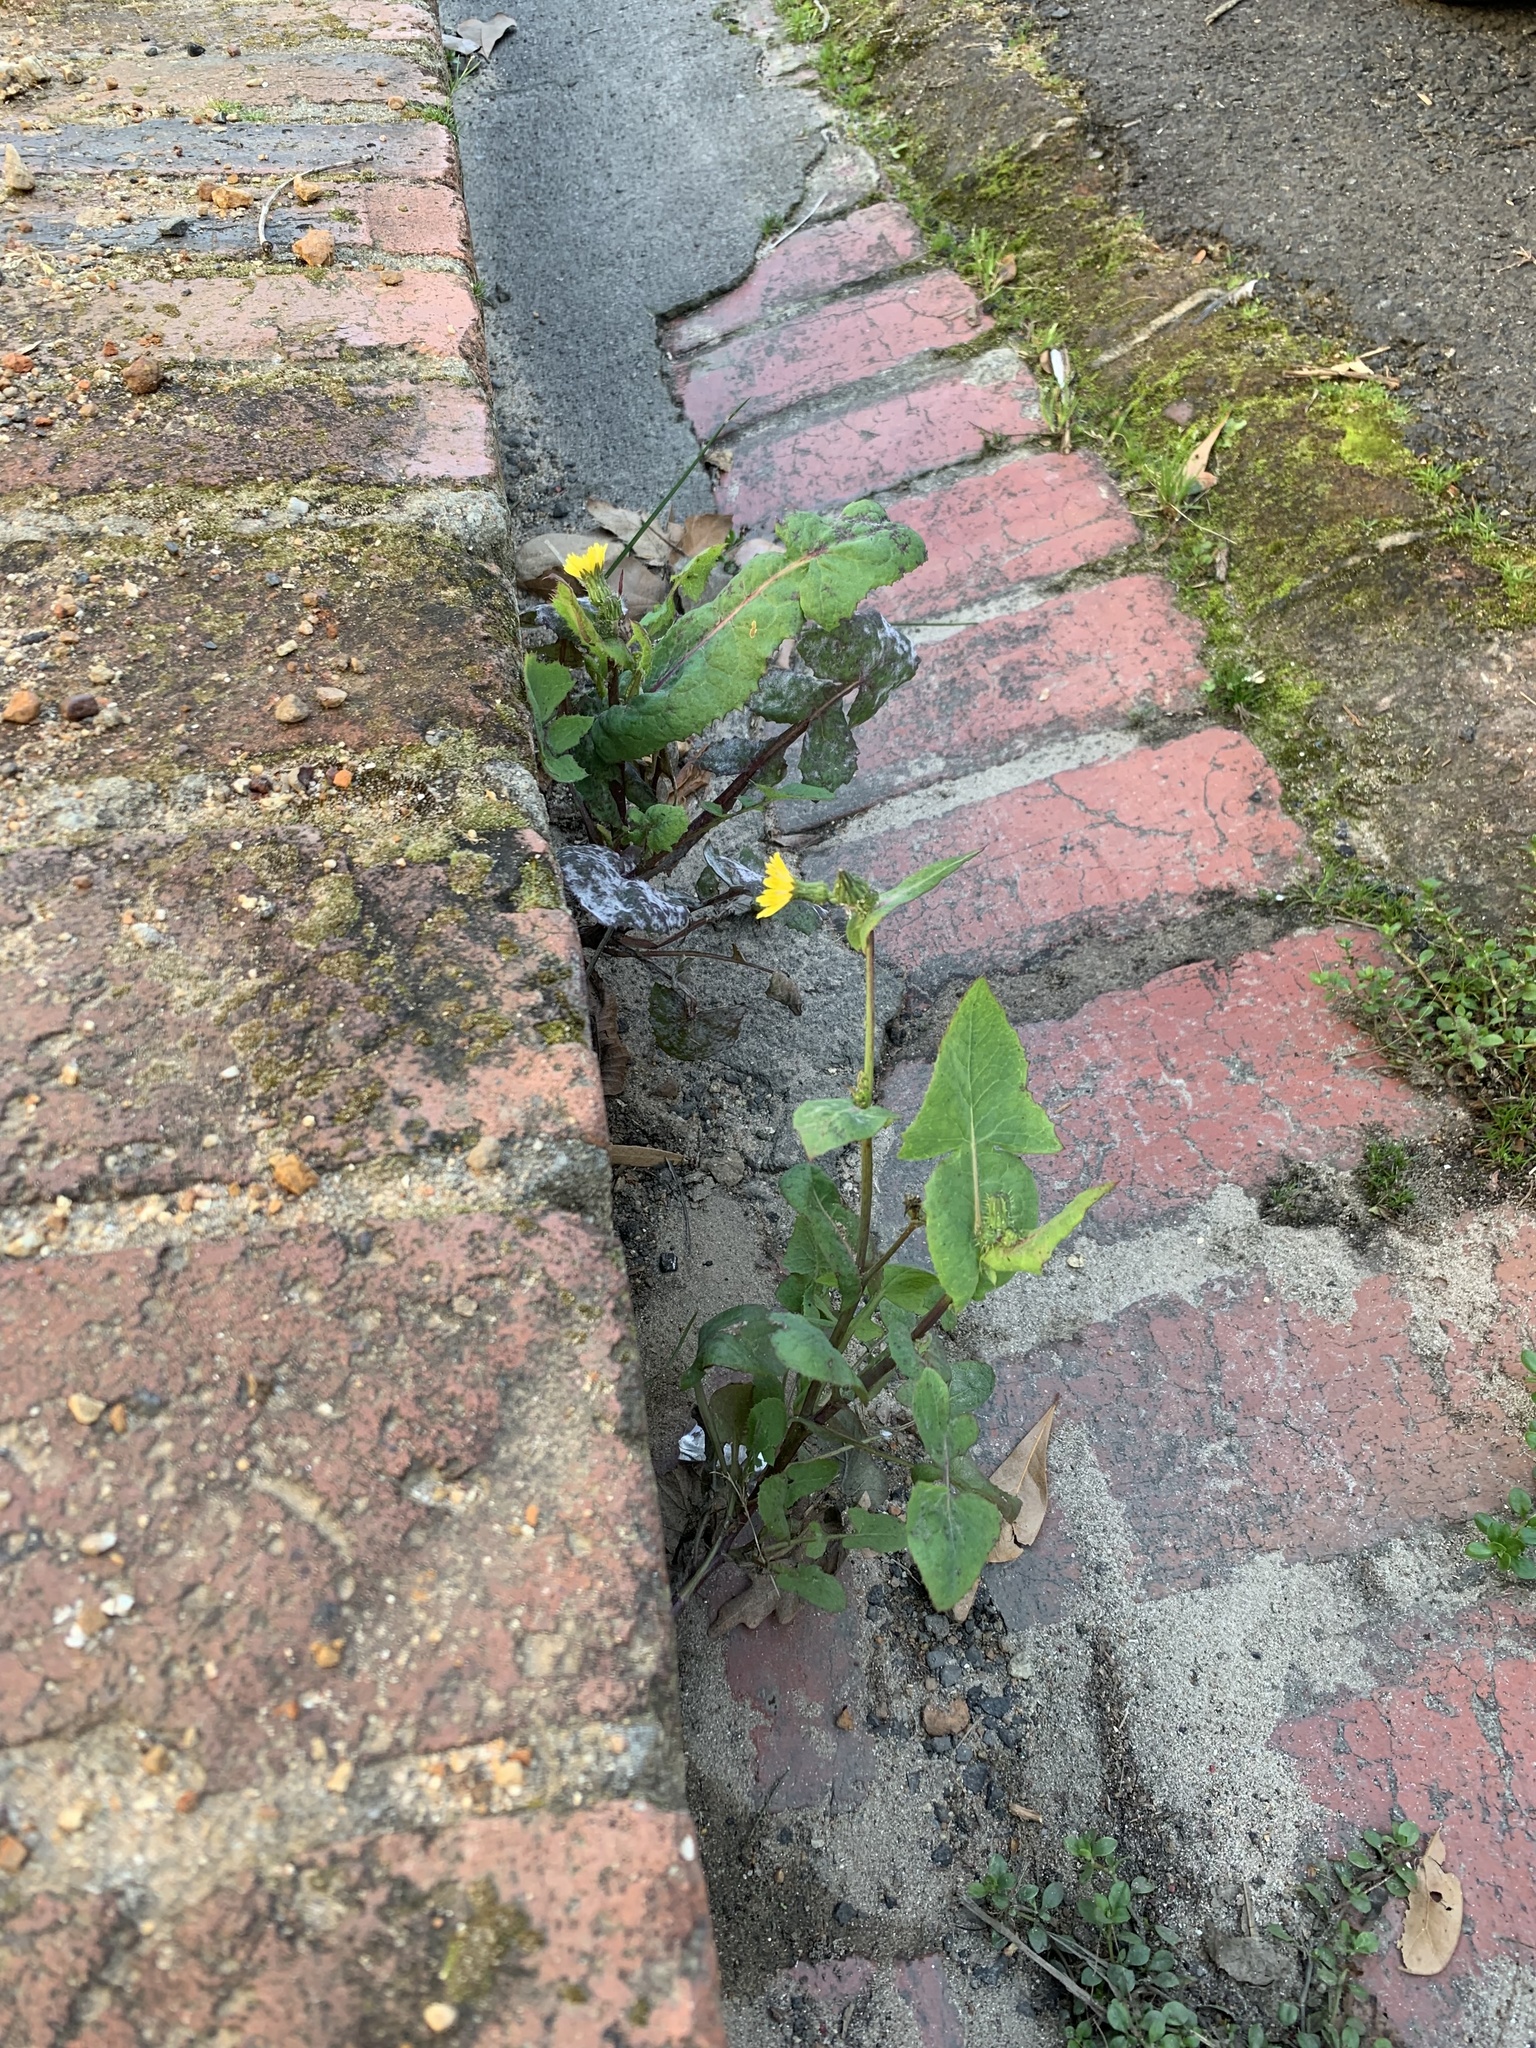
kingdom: Plantae
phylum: Tracheophyta
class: Magnoliopsida
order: Asterales
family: Asteraceae
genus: Sonchus
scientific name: Sonchus oleraceus
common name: Common sowthistle
